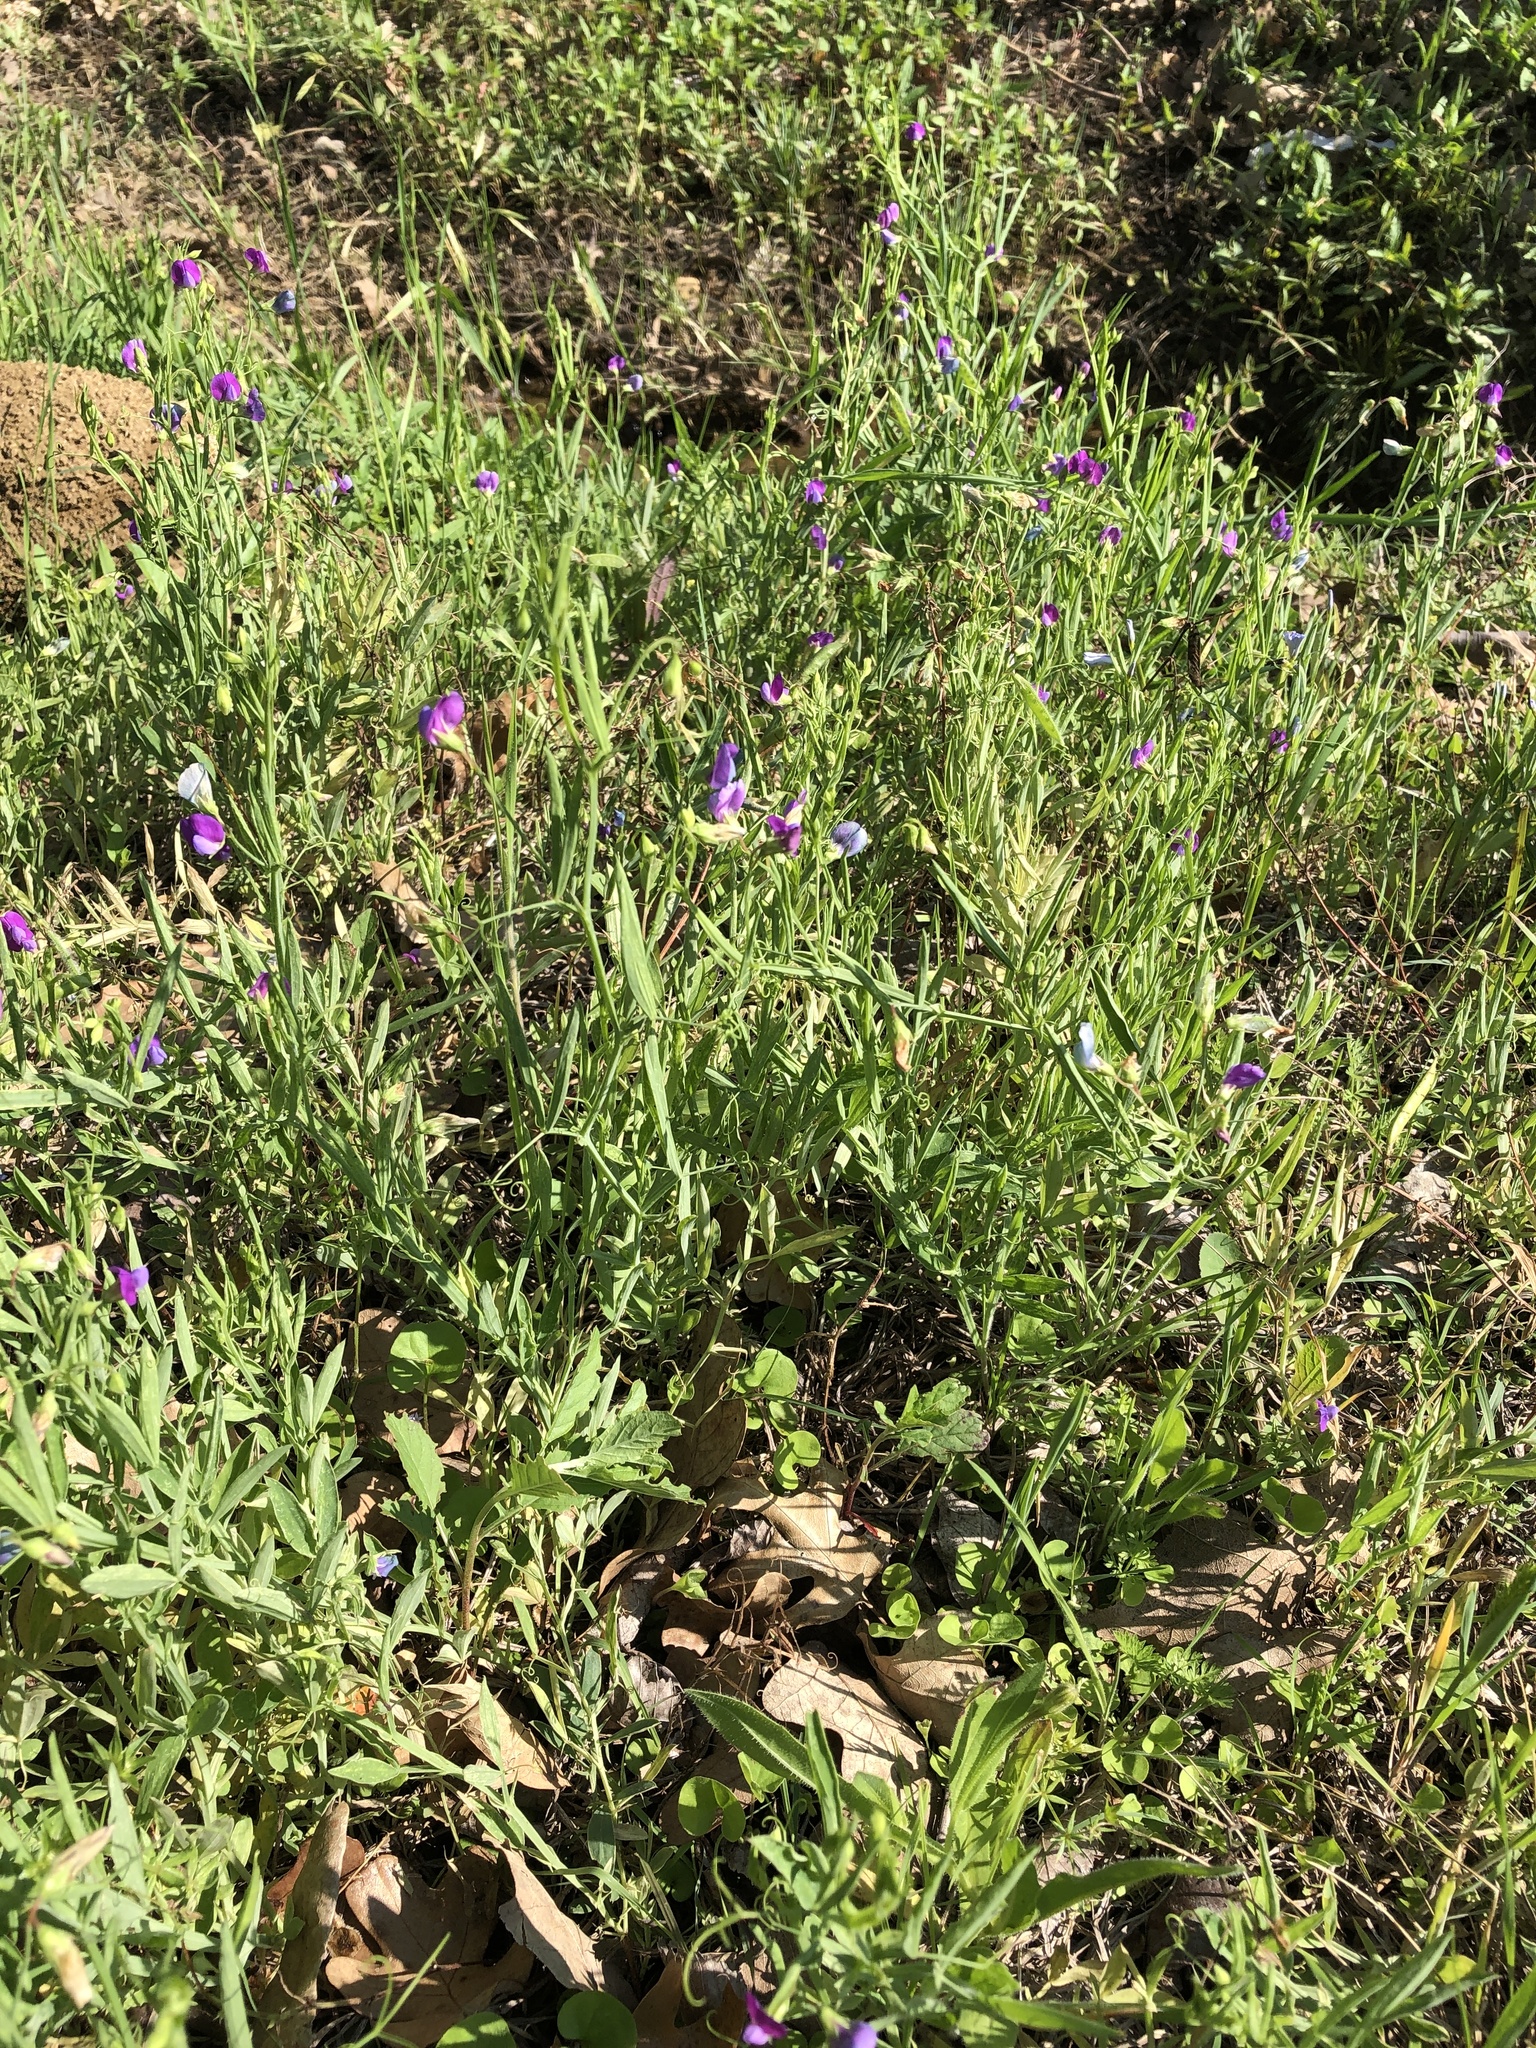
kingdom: Plantae
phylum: Tracheophyta
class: Magnoliopsida
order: Fabales
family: Fabaceae
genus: Lathyrus
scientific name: Lathyrus hirsutus
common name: Hairy vetchling
